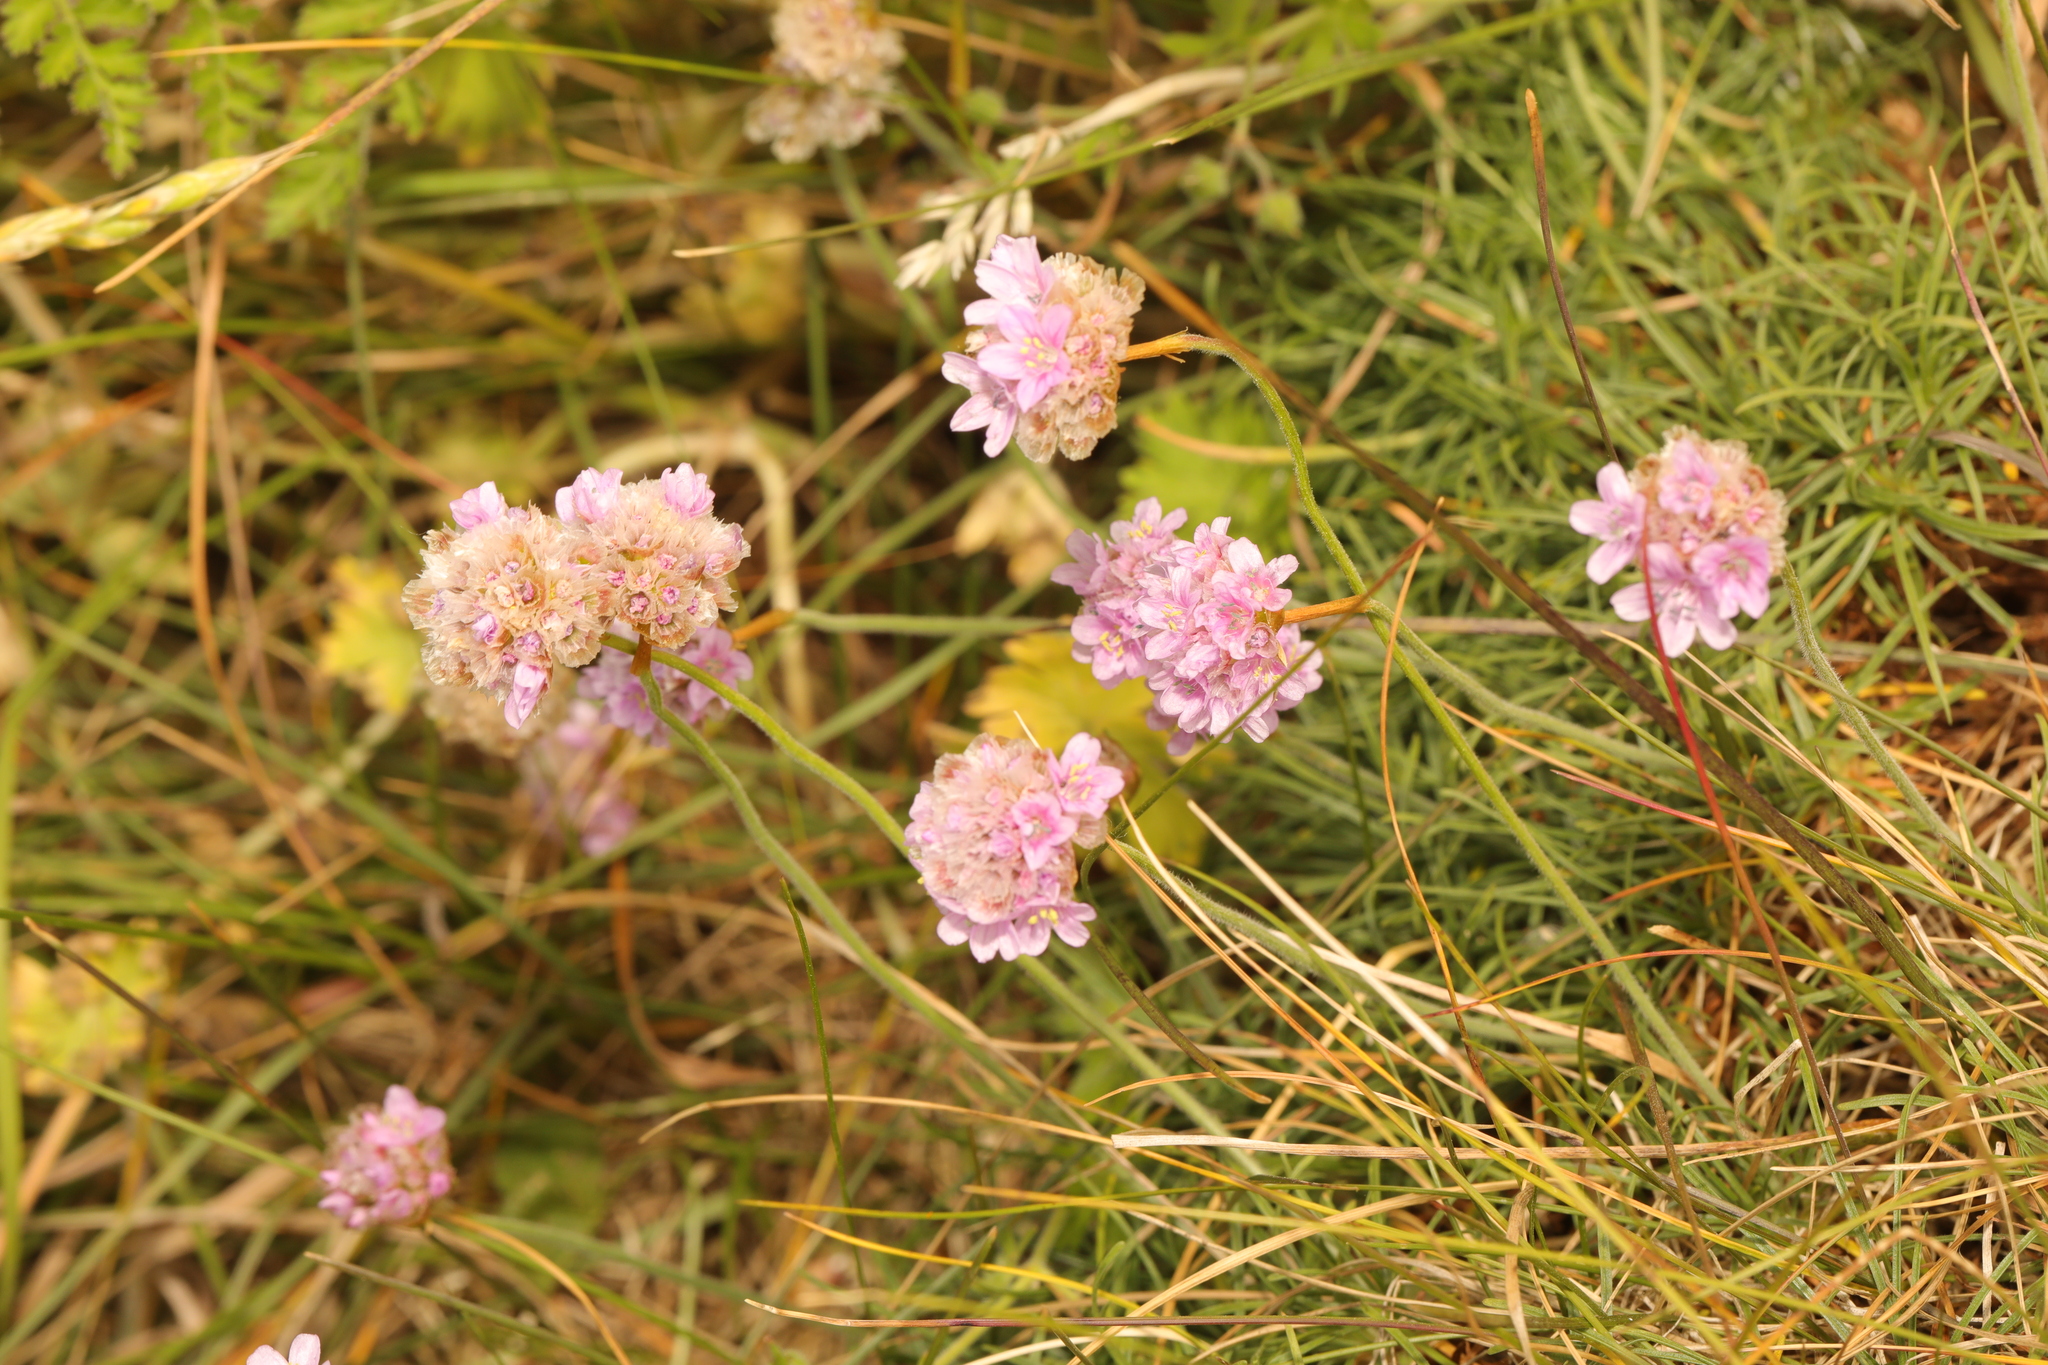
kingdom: Plantae
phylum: Tracheophyta
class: Magnoliopsida
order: Caryophyllales
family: Plumbaginaceae
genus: Armeria
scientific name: Armeria maritima
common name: Thrift
